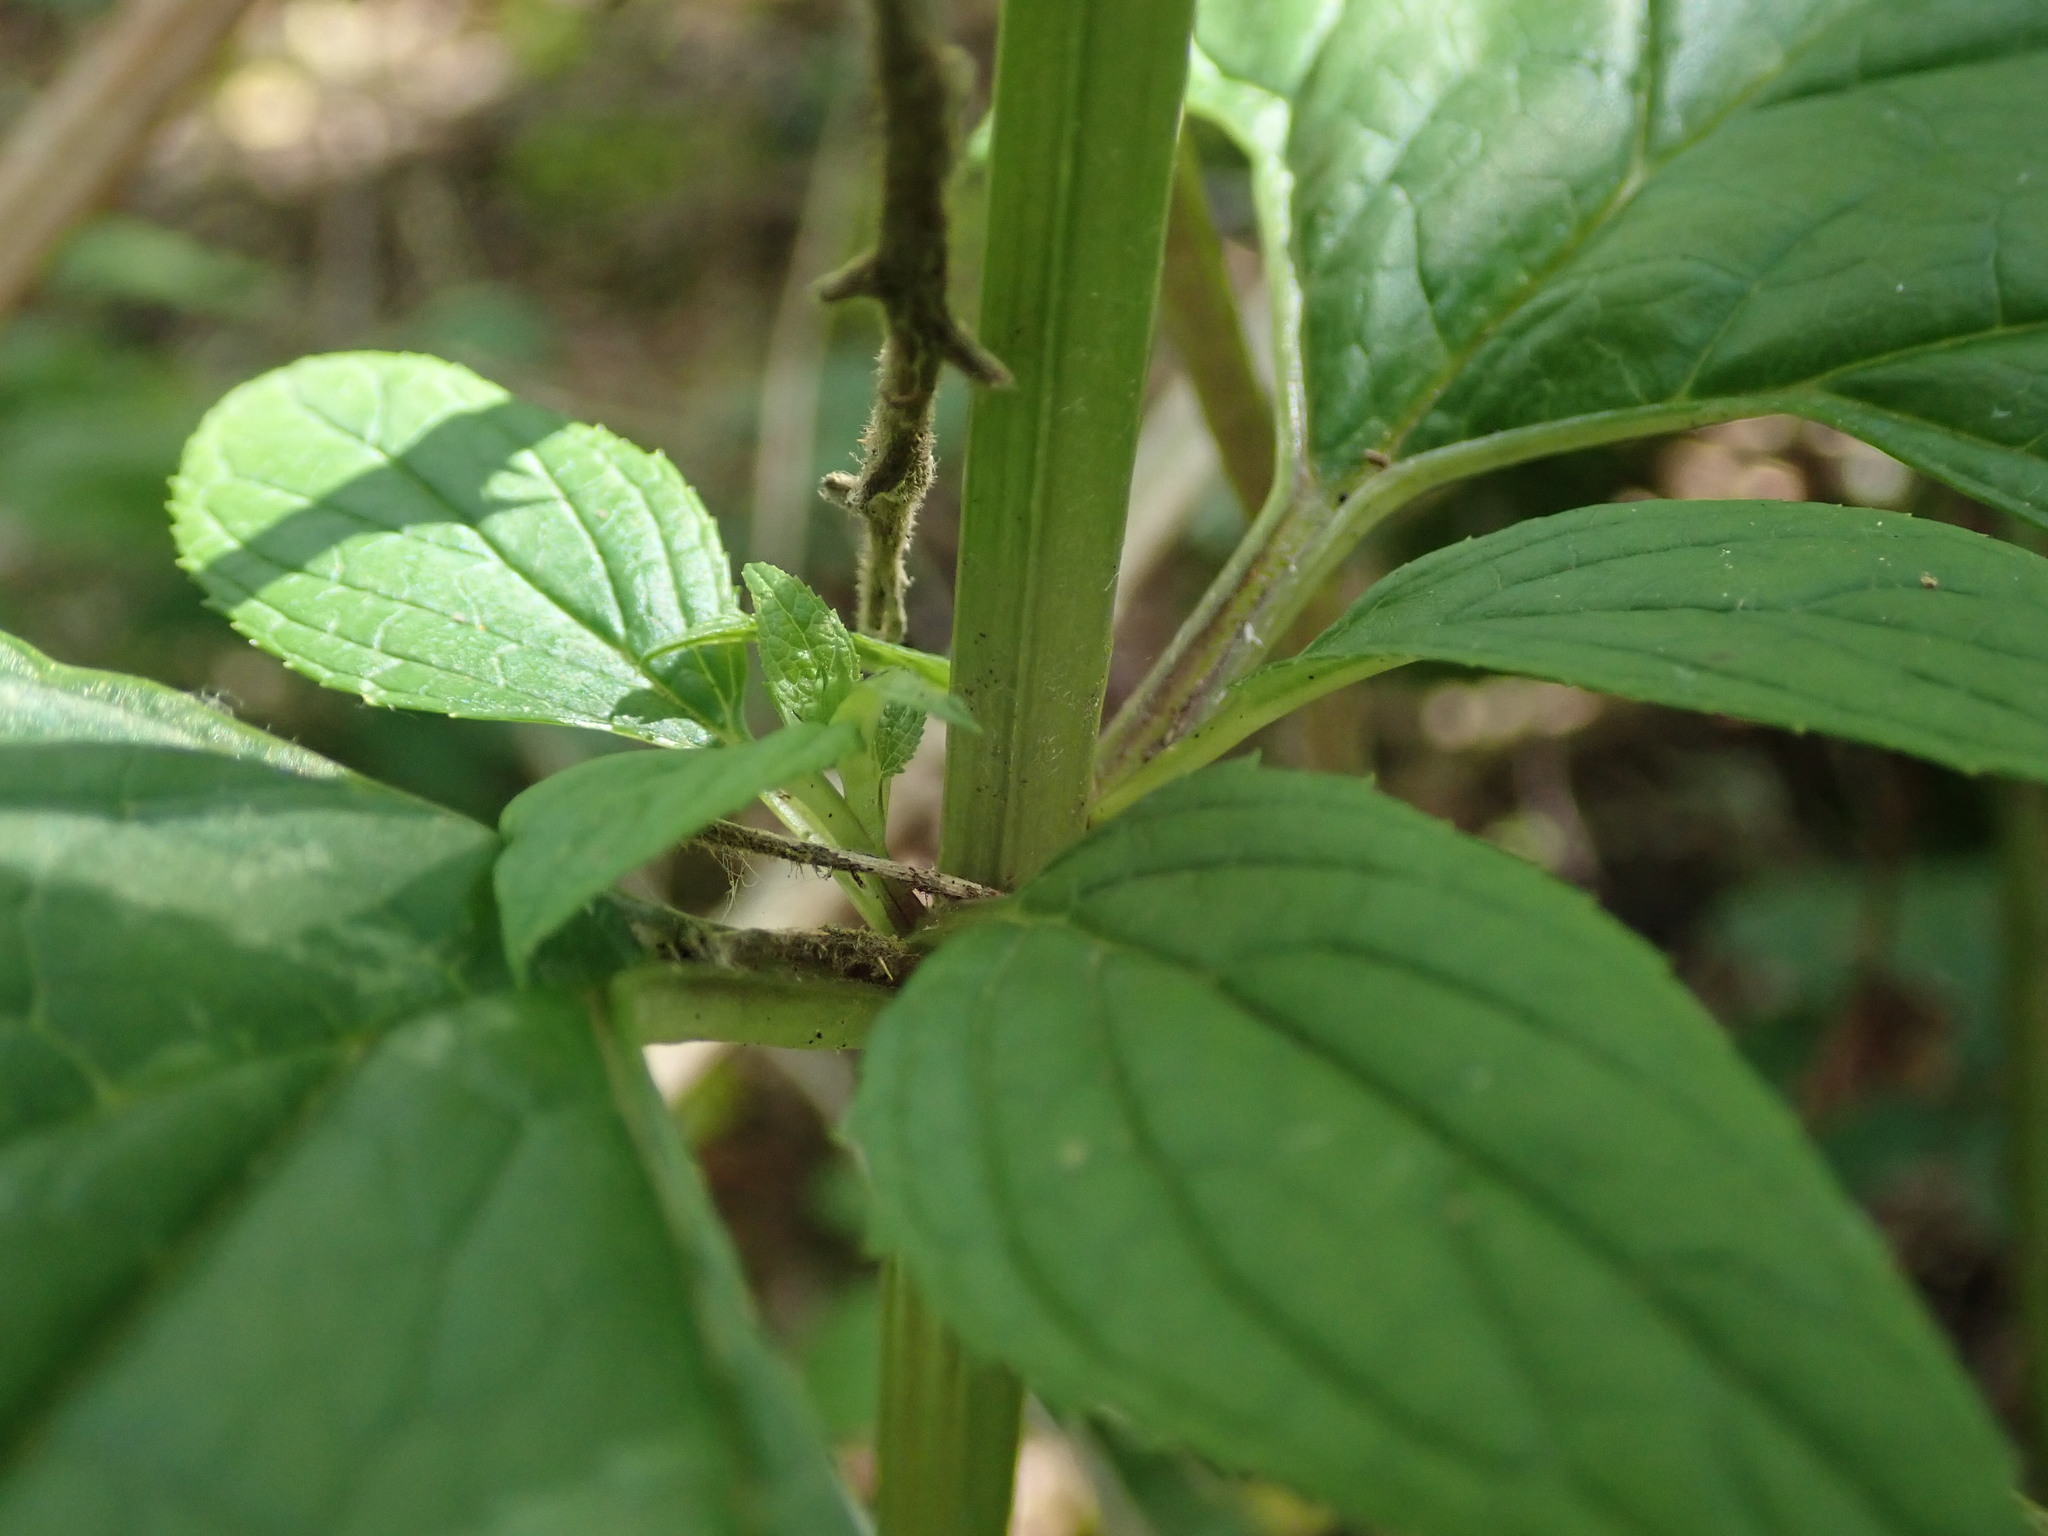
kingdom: Plantae
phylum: Tracheophyta
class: Magnoliopsida
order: Lamiales
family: Scrophulariaceae
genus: Scrophularia
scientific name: Scrophularia nodosa
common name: Common figwort
